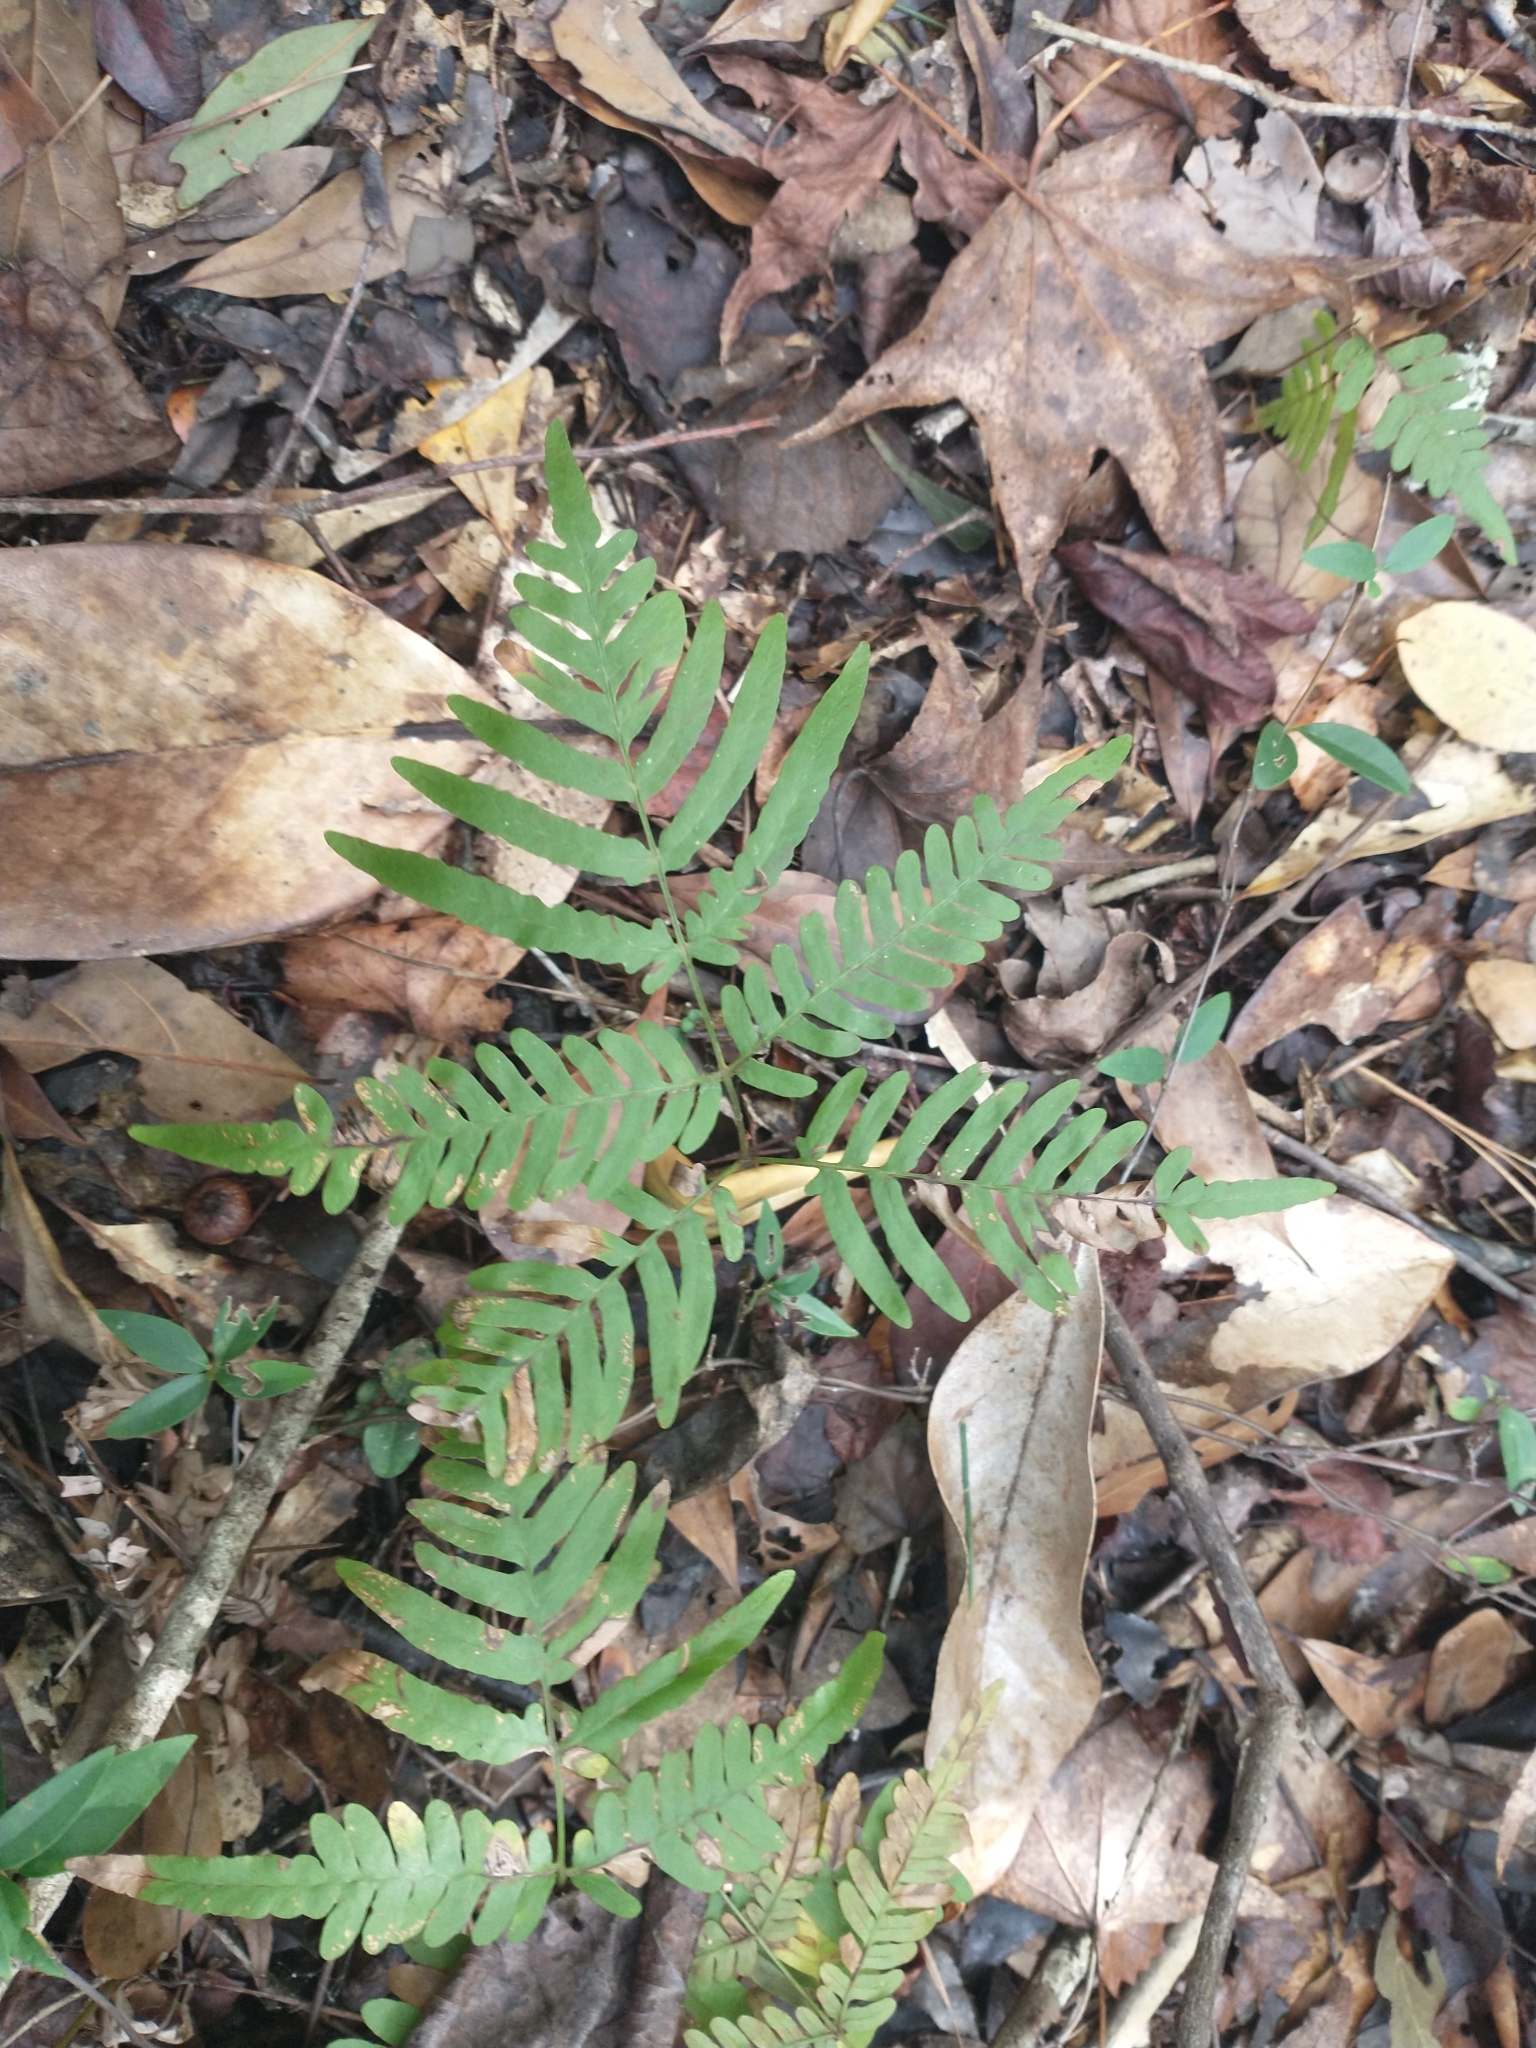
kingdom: Plantae
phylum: Tracheophyta
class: Polypodiopsida
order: Polypodiales
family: Dennstaedtiaceae
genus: Pteridium
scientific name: Pteridium aquilinum
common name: Bracken
